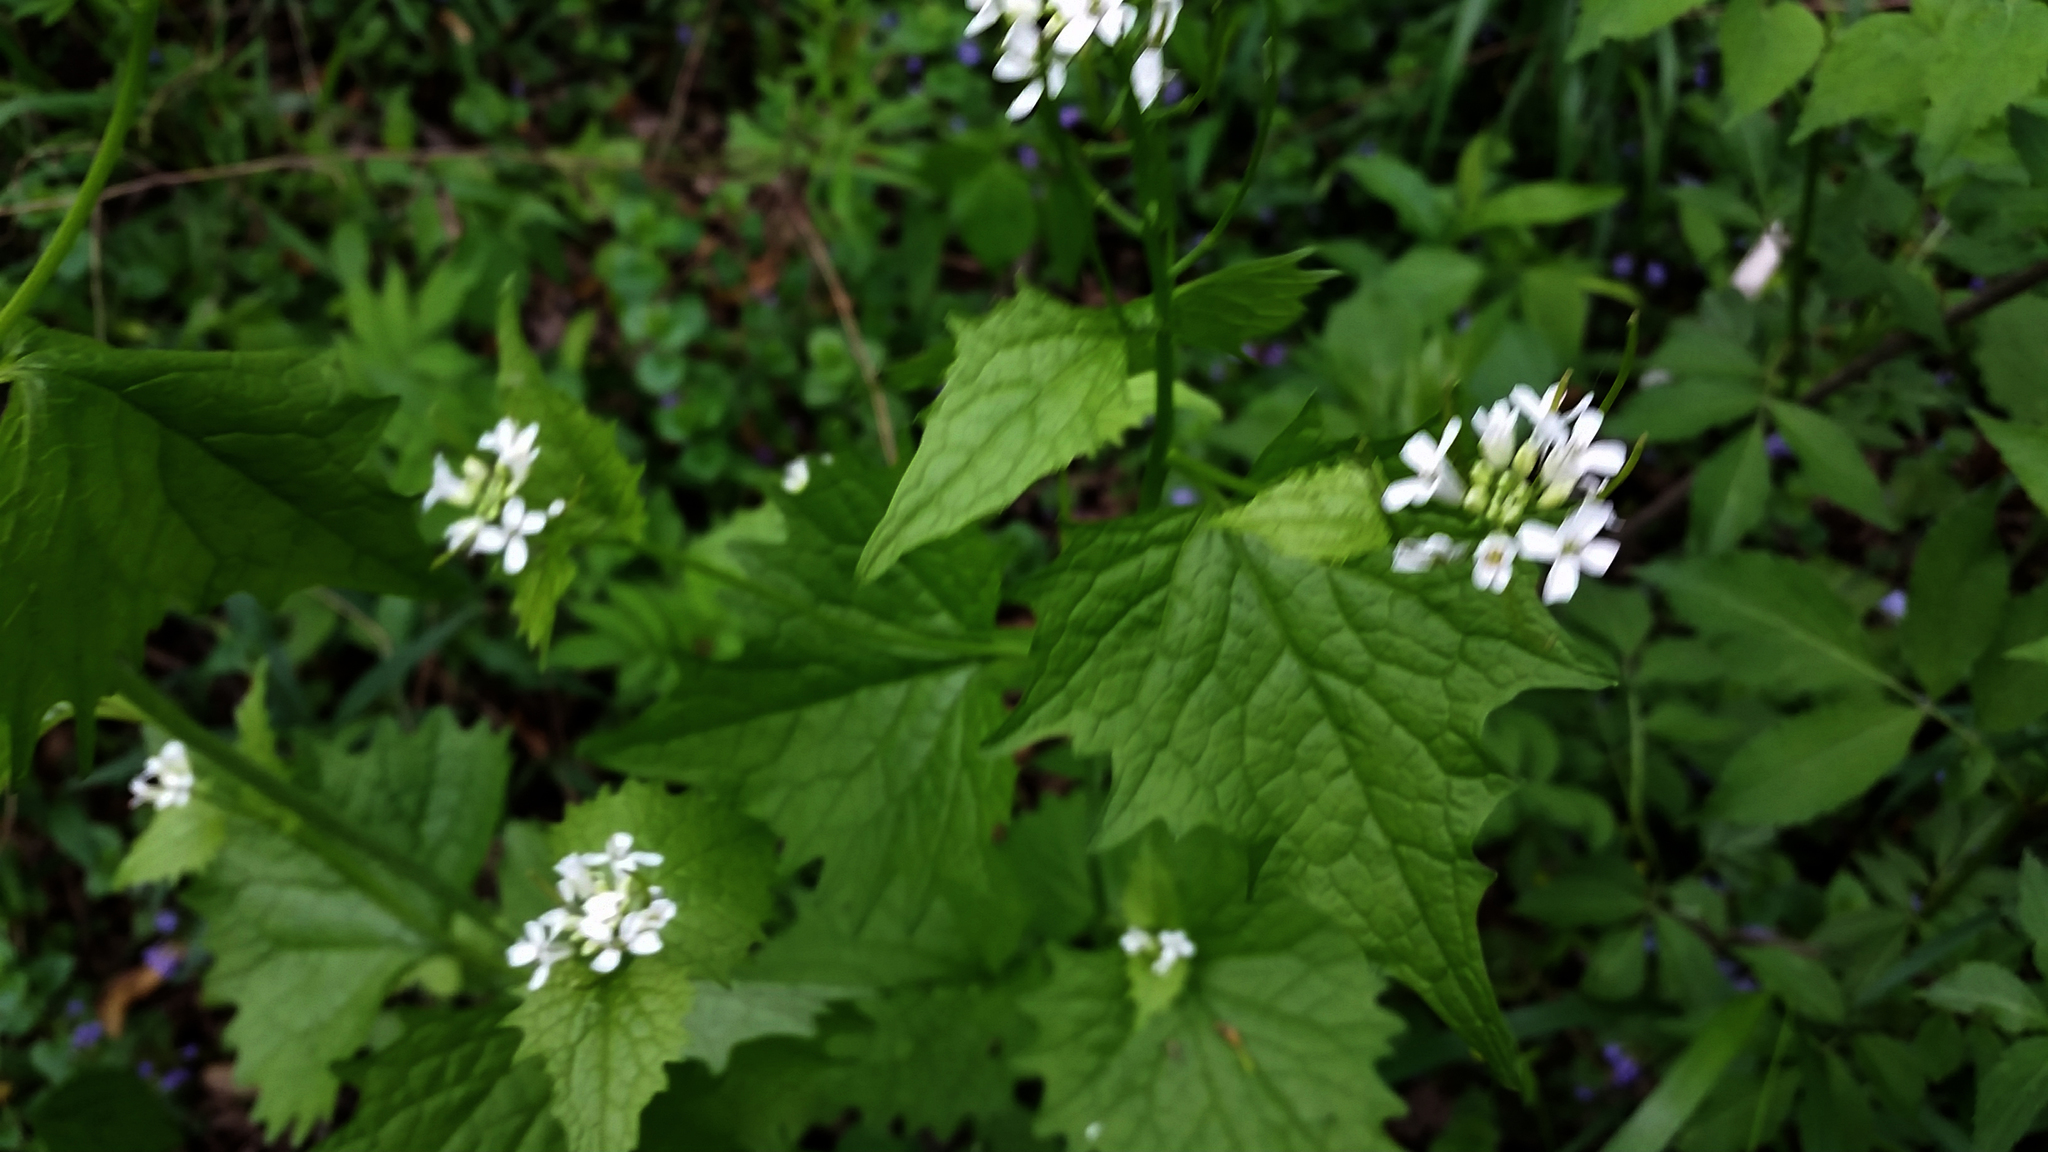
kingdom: Plantae
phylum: Tracheophyta
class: Magnoliopsida
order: Brassicales
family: Brassicaceae
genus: Alliaria
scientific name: Alliaria petiolata
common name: Garlic mustard
